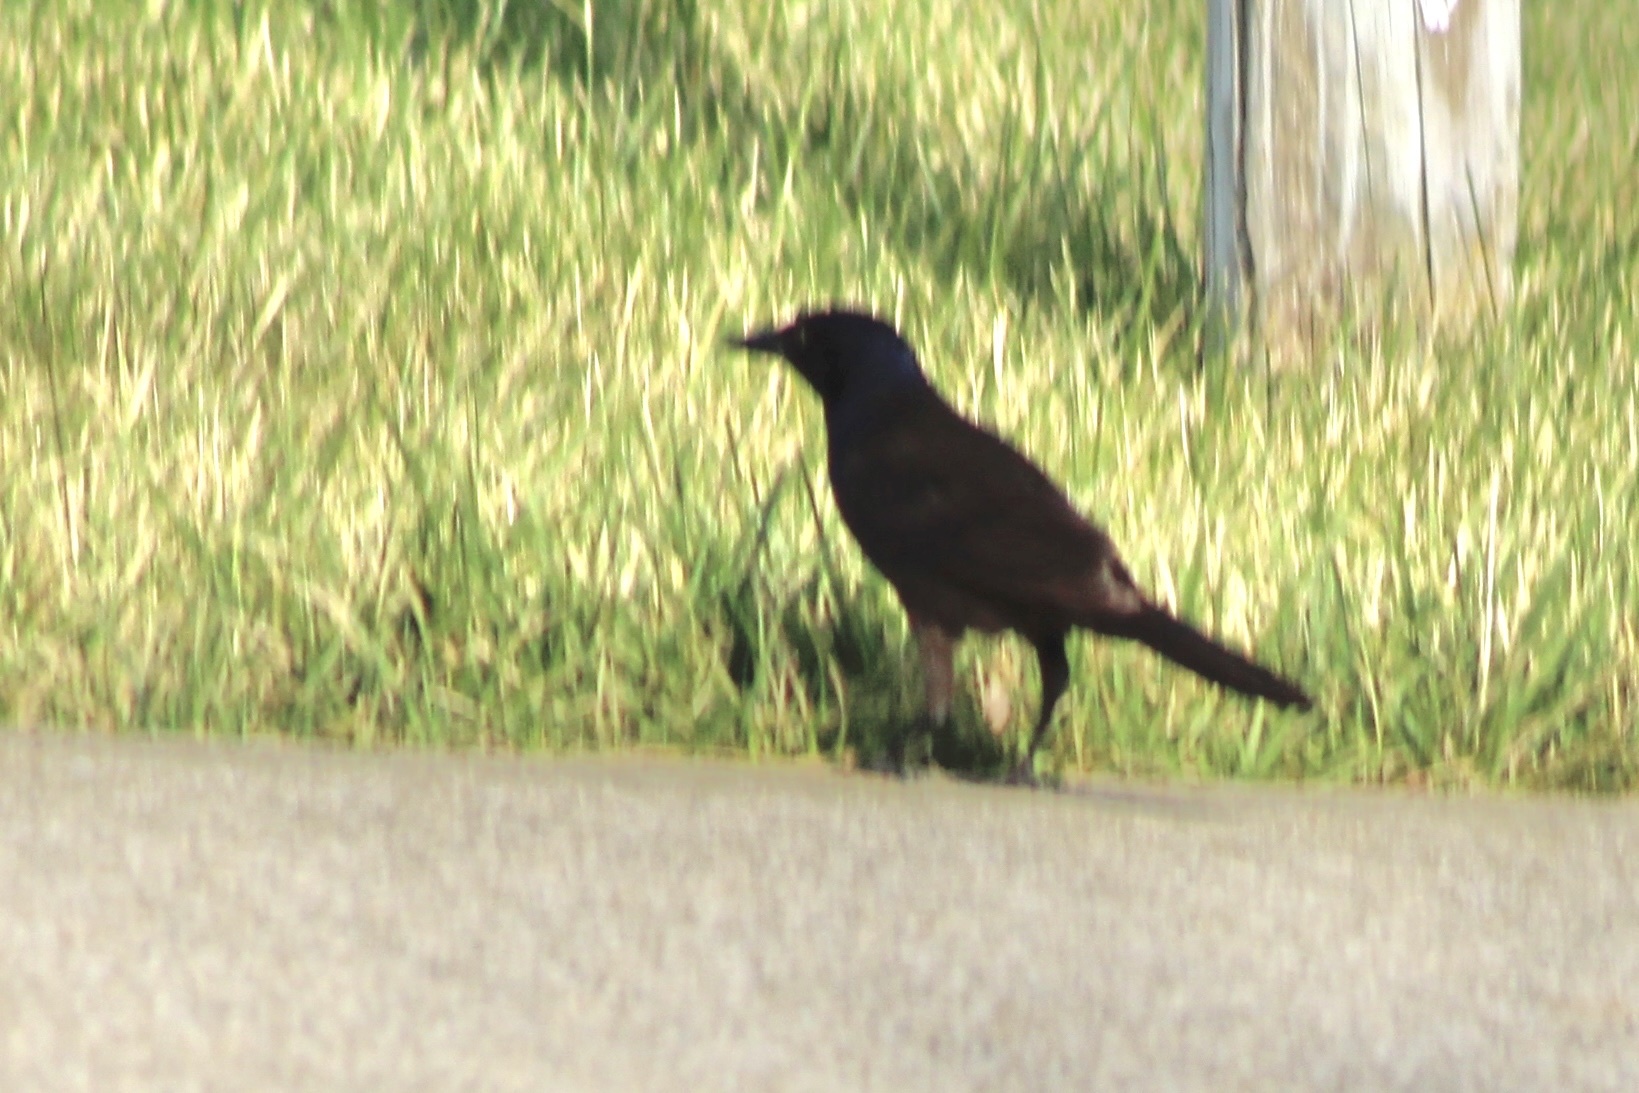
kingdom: Animalia
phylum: Chordata
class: Aves
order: Passeriformes
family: Icteridae
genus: Quiscalus
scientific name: Quiscalus quiscula
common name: Common grackle
